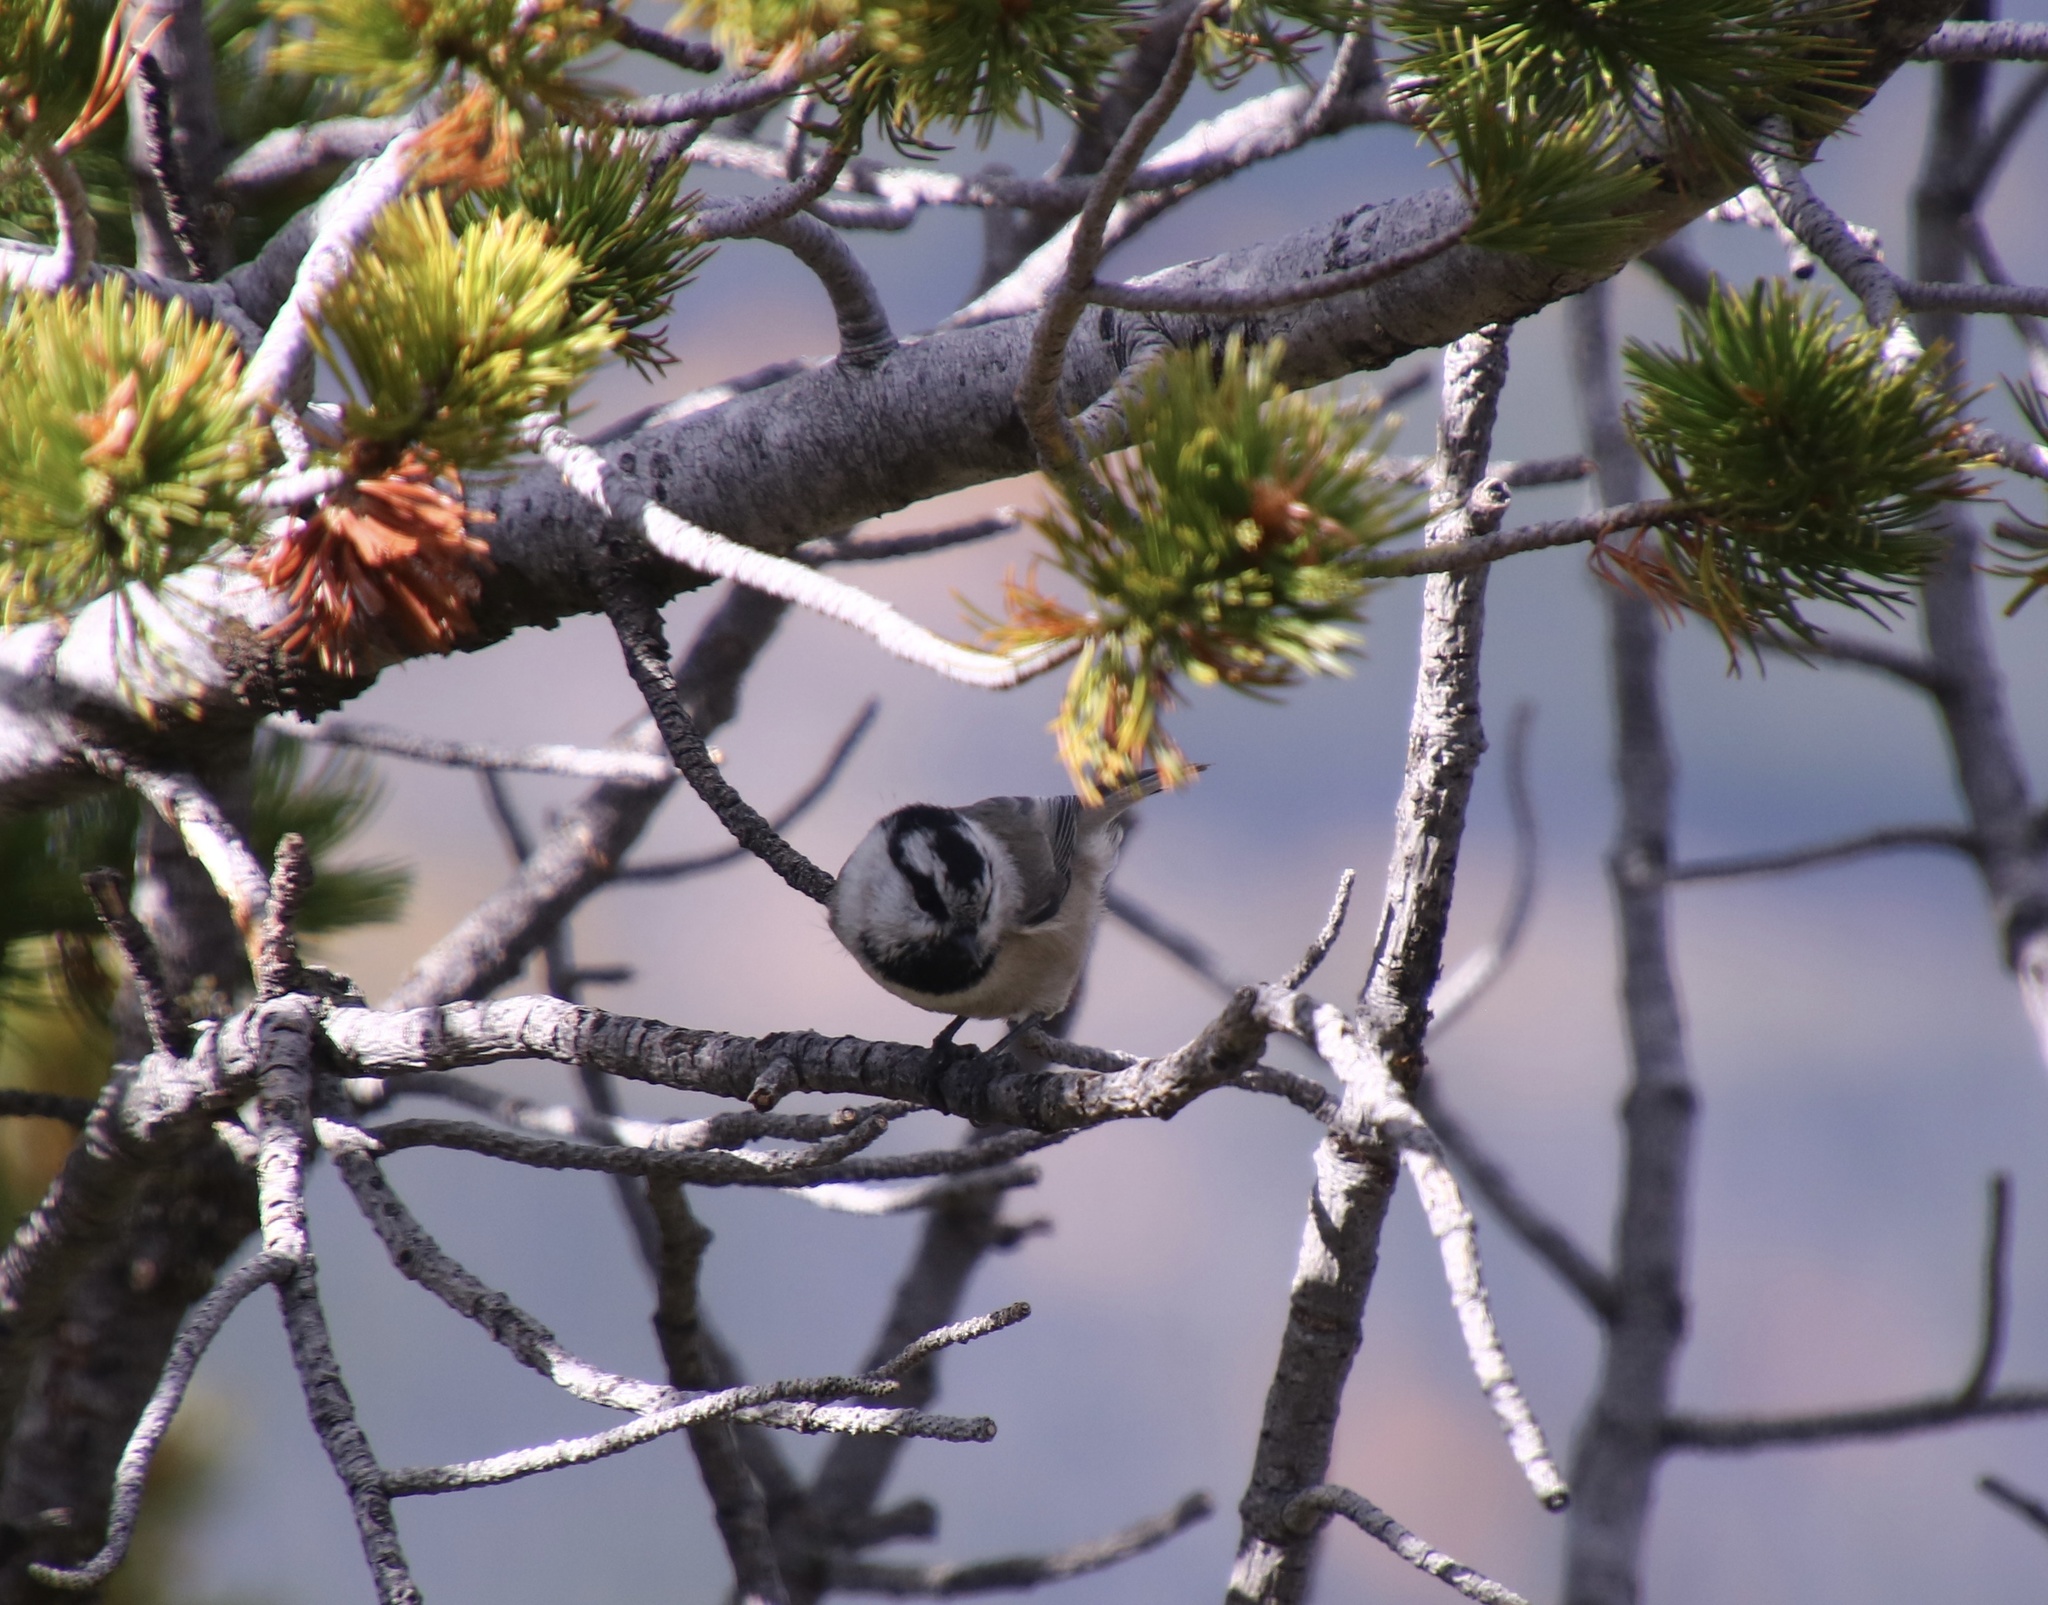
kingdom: Animalia
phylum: Chordata
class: Aves
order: Passeriformes
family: Paridae
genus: Poecile
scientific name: Poecile gambeli
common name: Mountain chickadee
